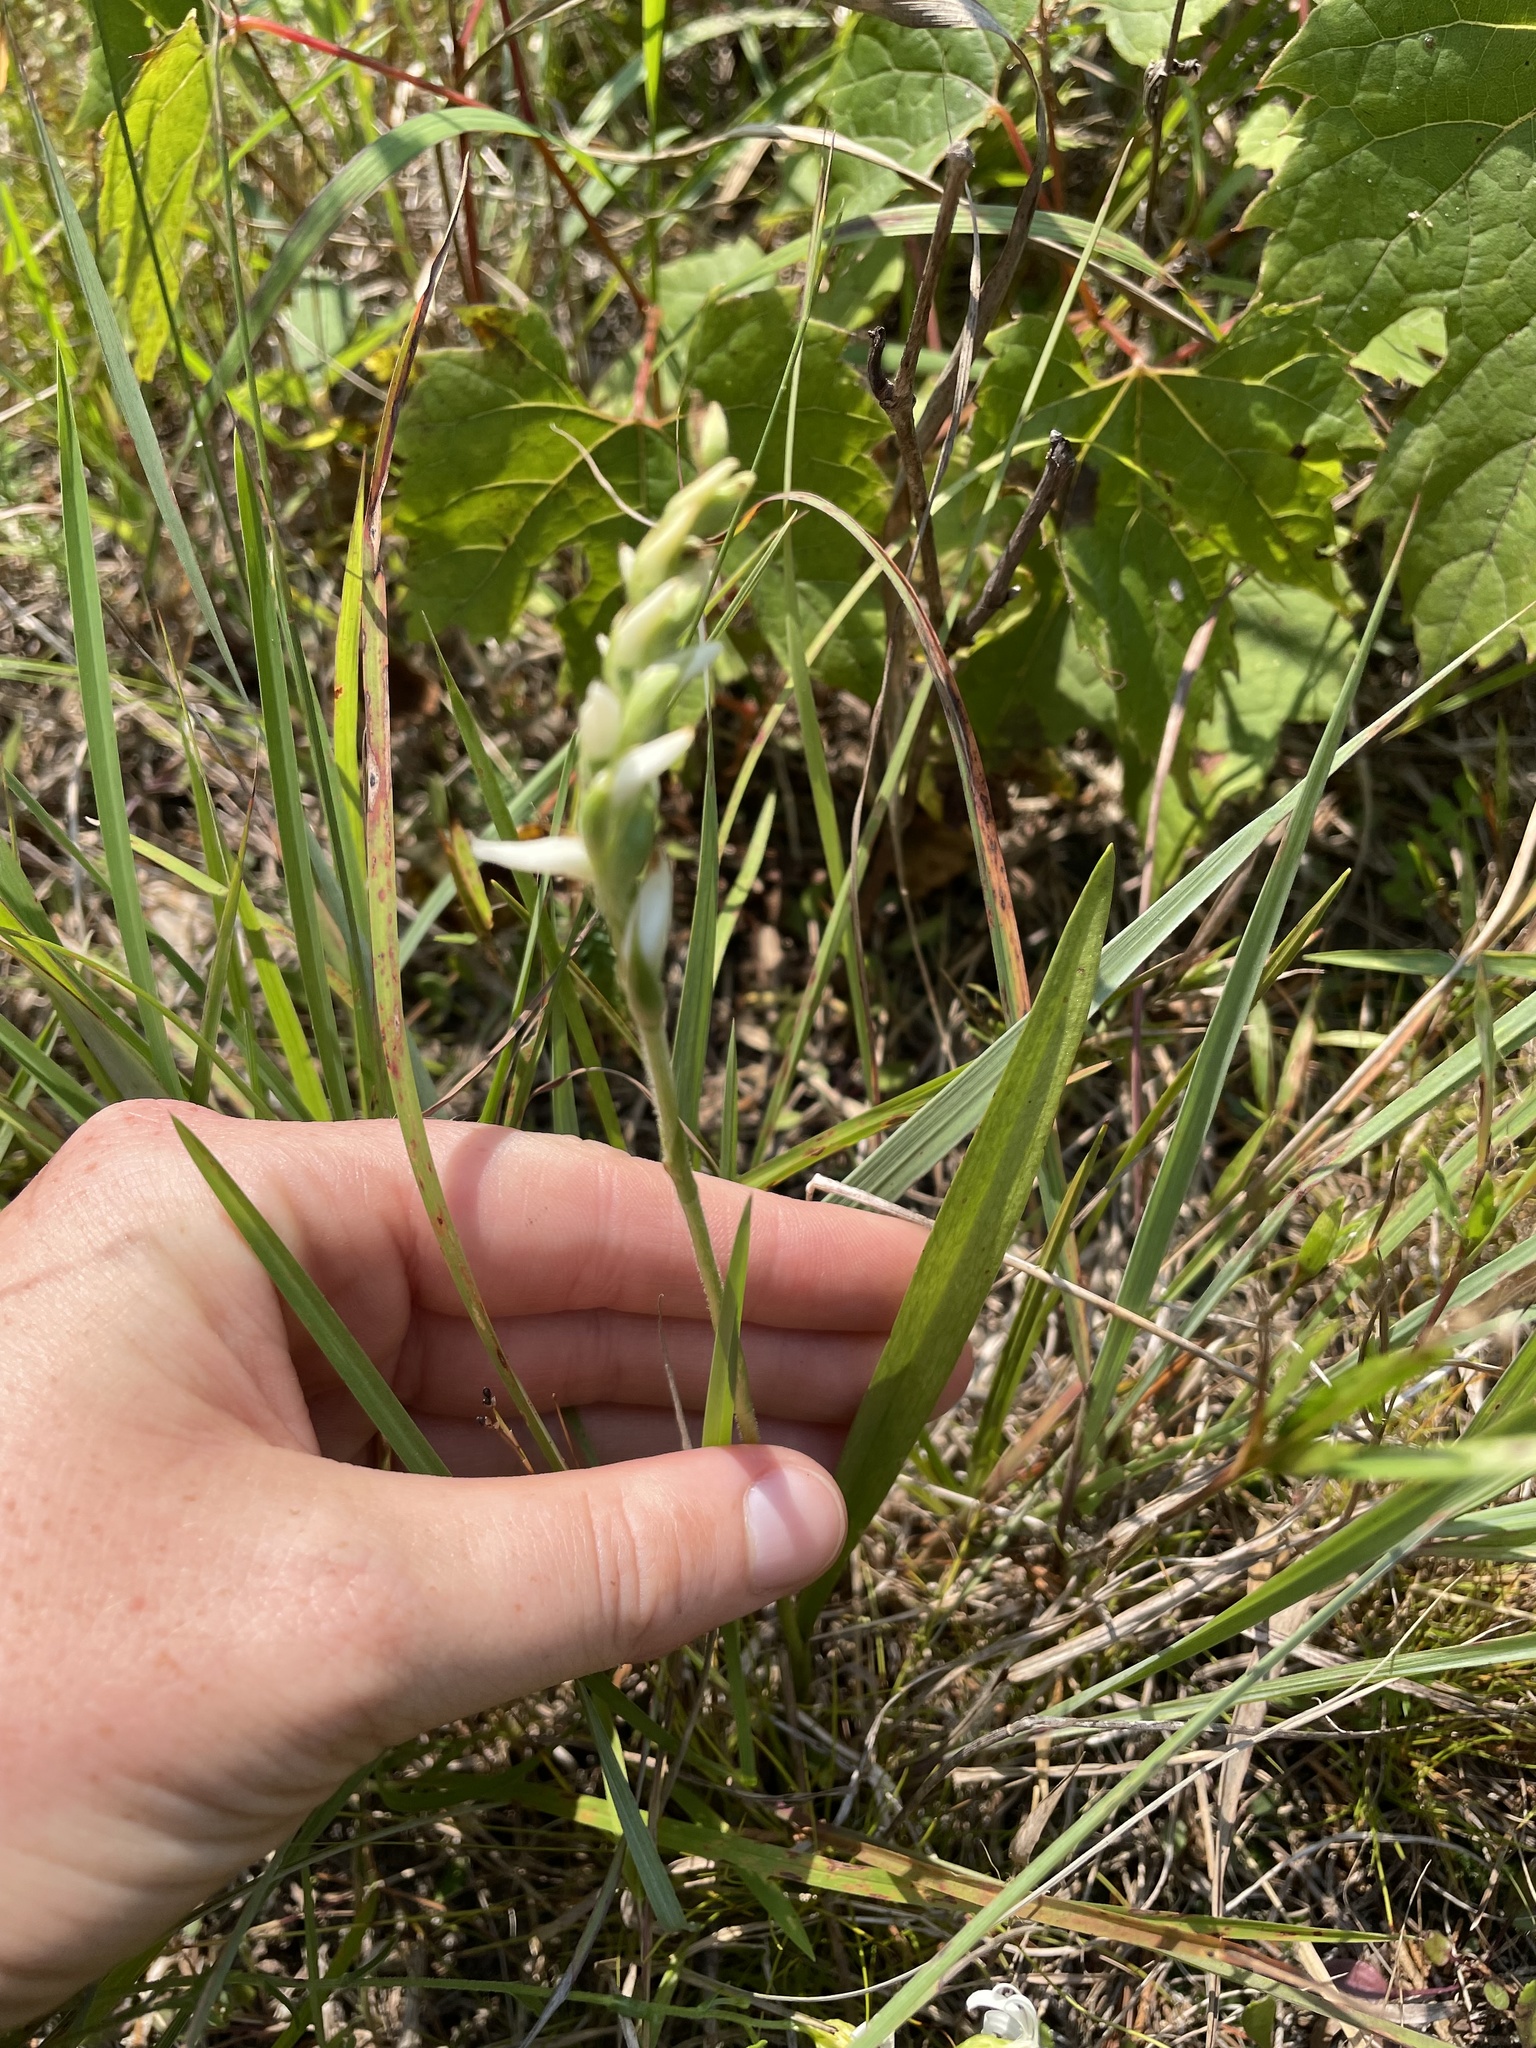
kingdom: Plantae
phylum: Tracheophyta
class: Liliopsida
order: Asparagales
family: Orchidaceae
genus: Spiranthes
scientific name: Spiranthes incurva
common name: Sphinx ladies'-tresses
